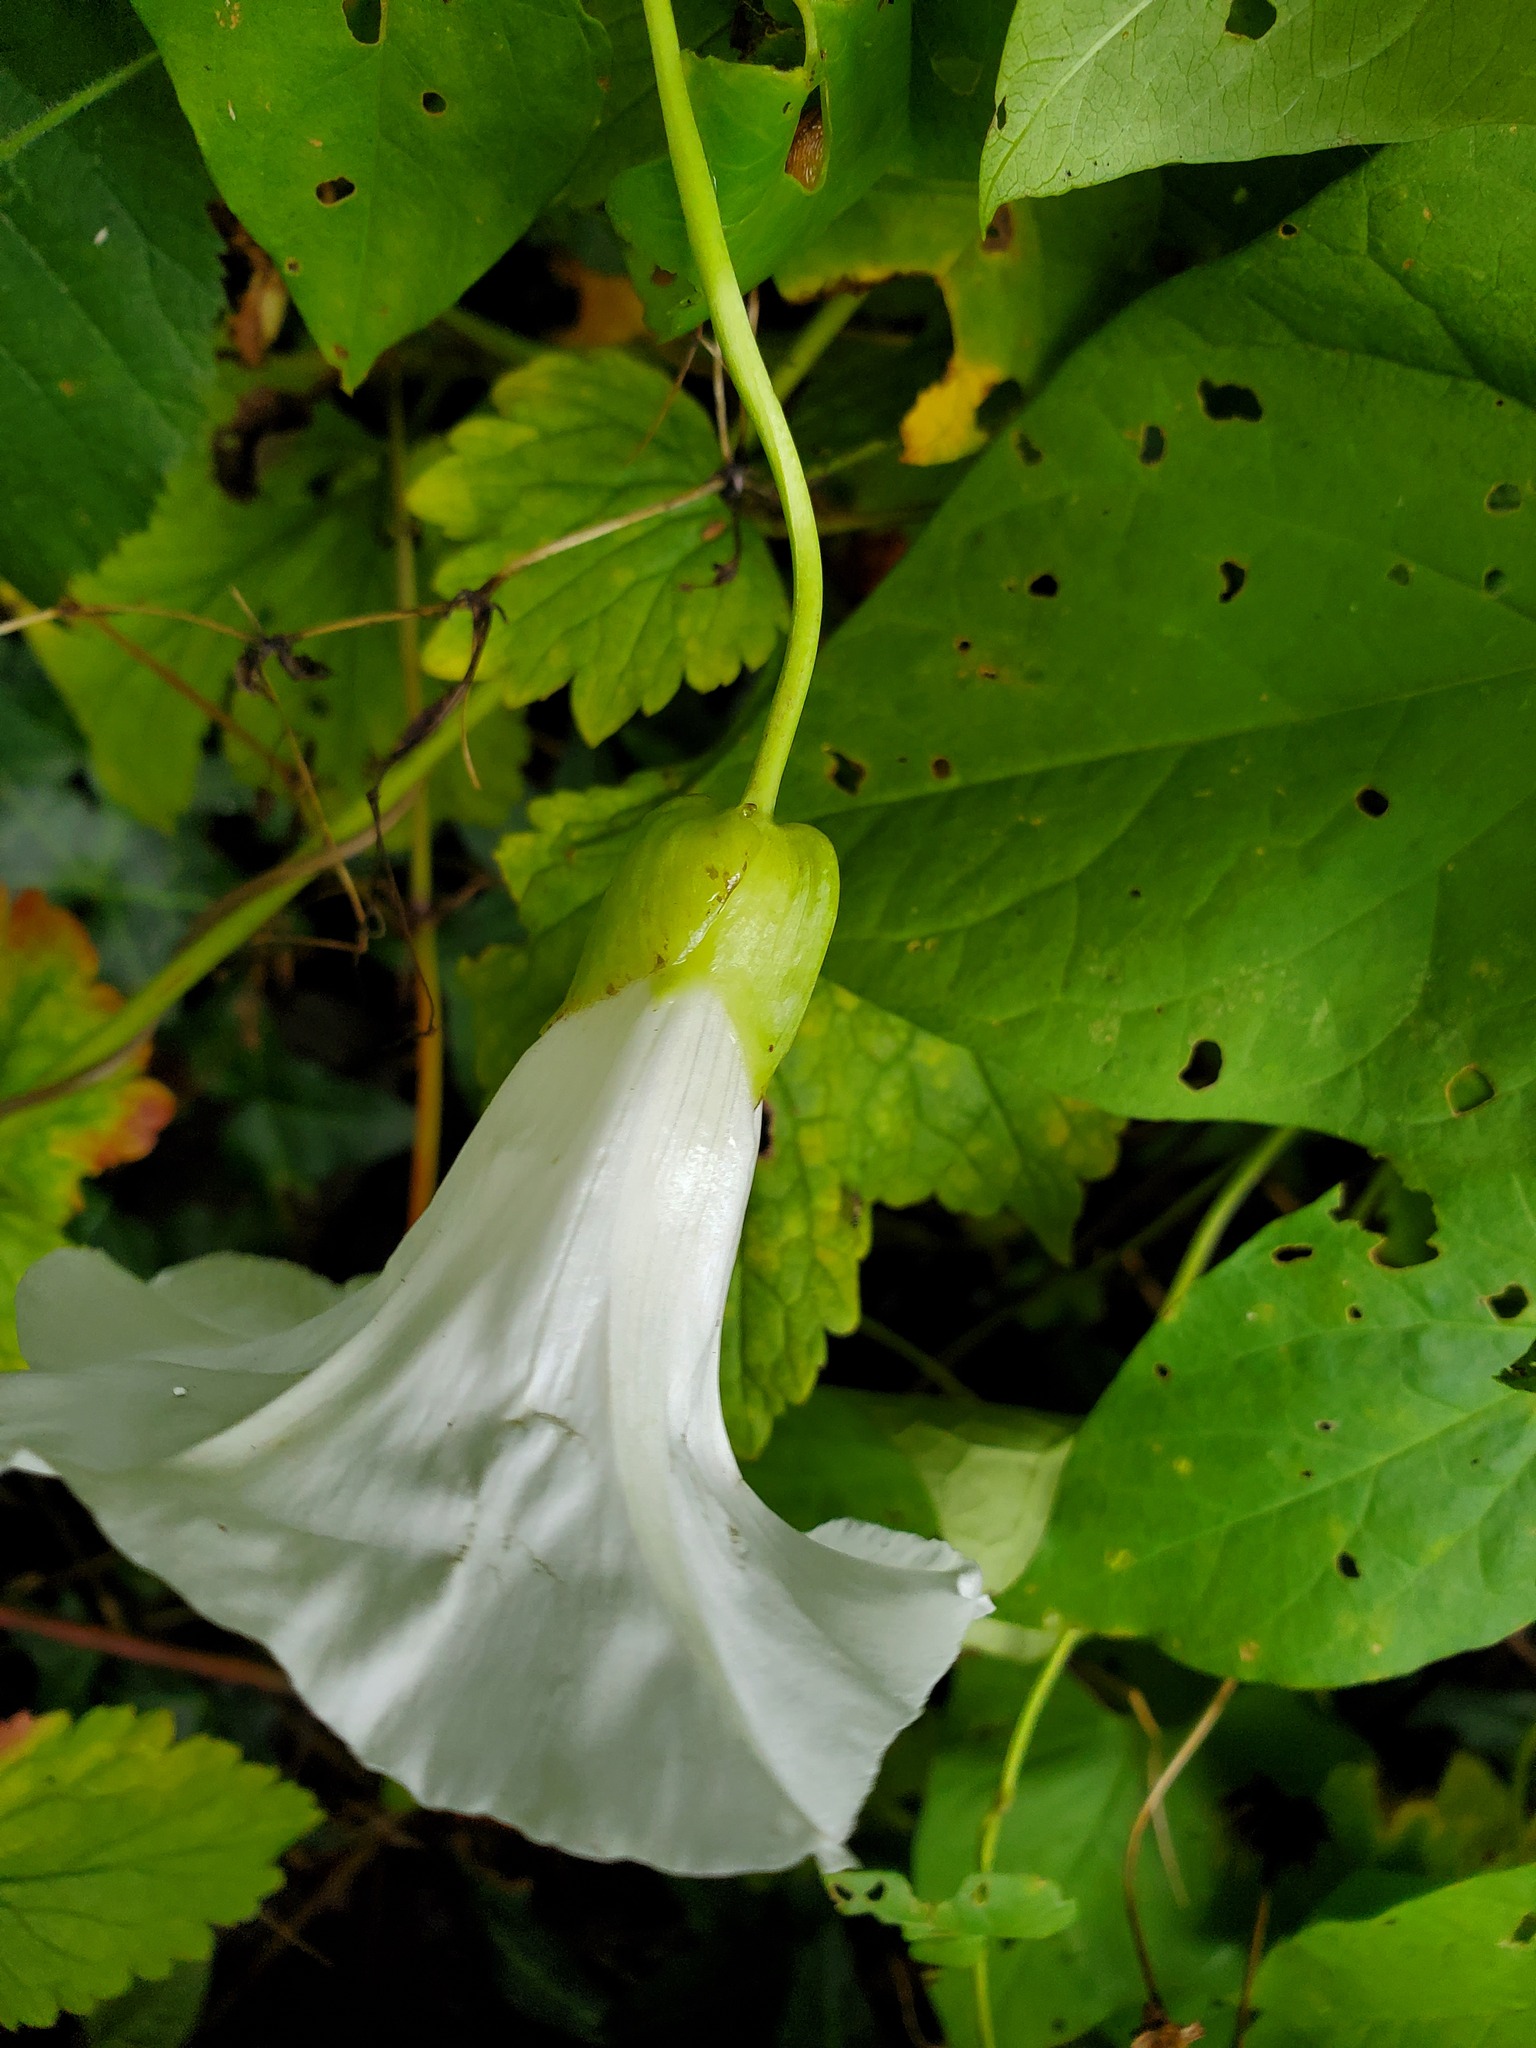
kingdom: Plantae
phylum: Tracheophyta
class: Magnoliopsida
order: Solanales
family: Convolvulaceae
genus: Calystegia
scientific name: Calystegia silvatica
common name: Large bindweed
